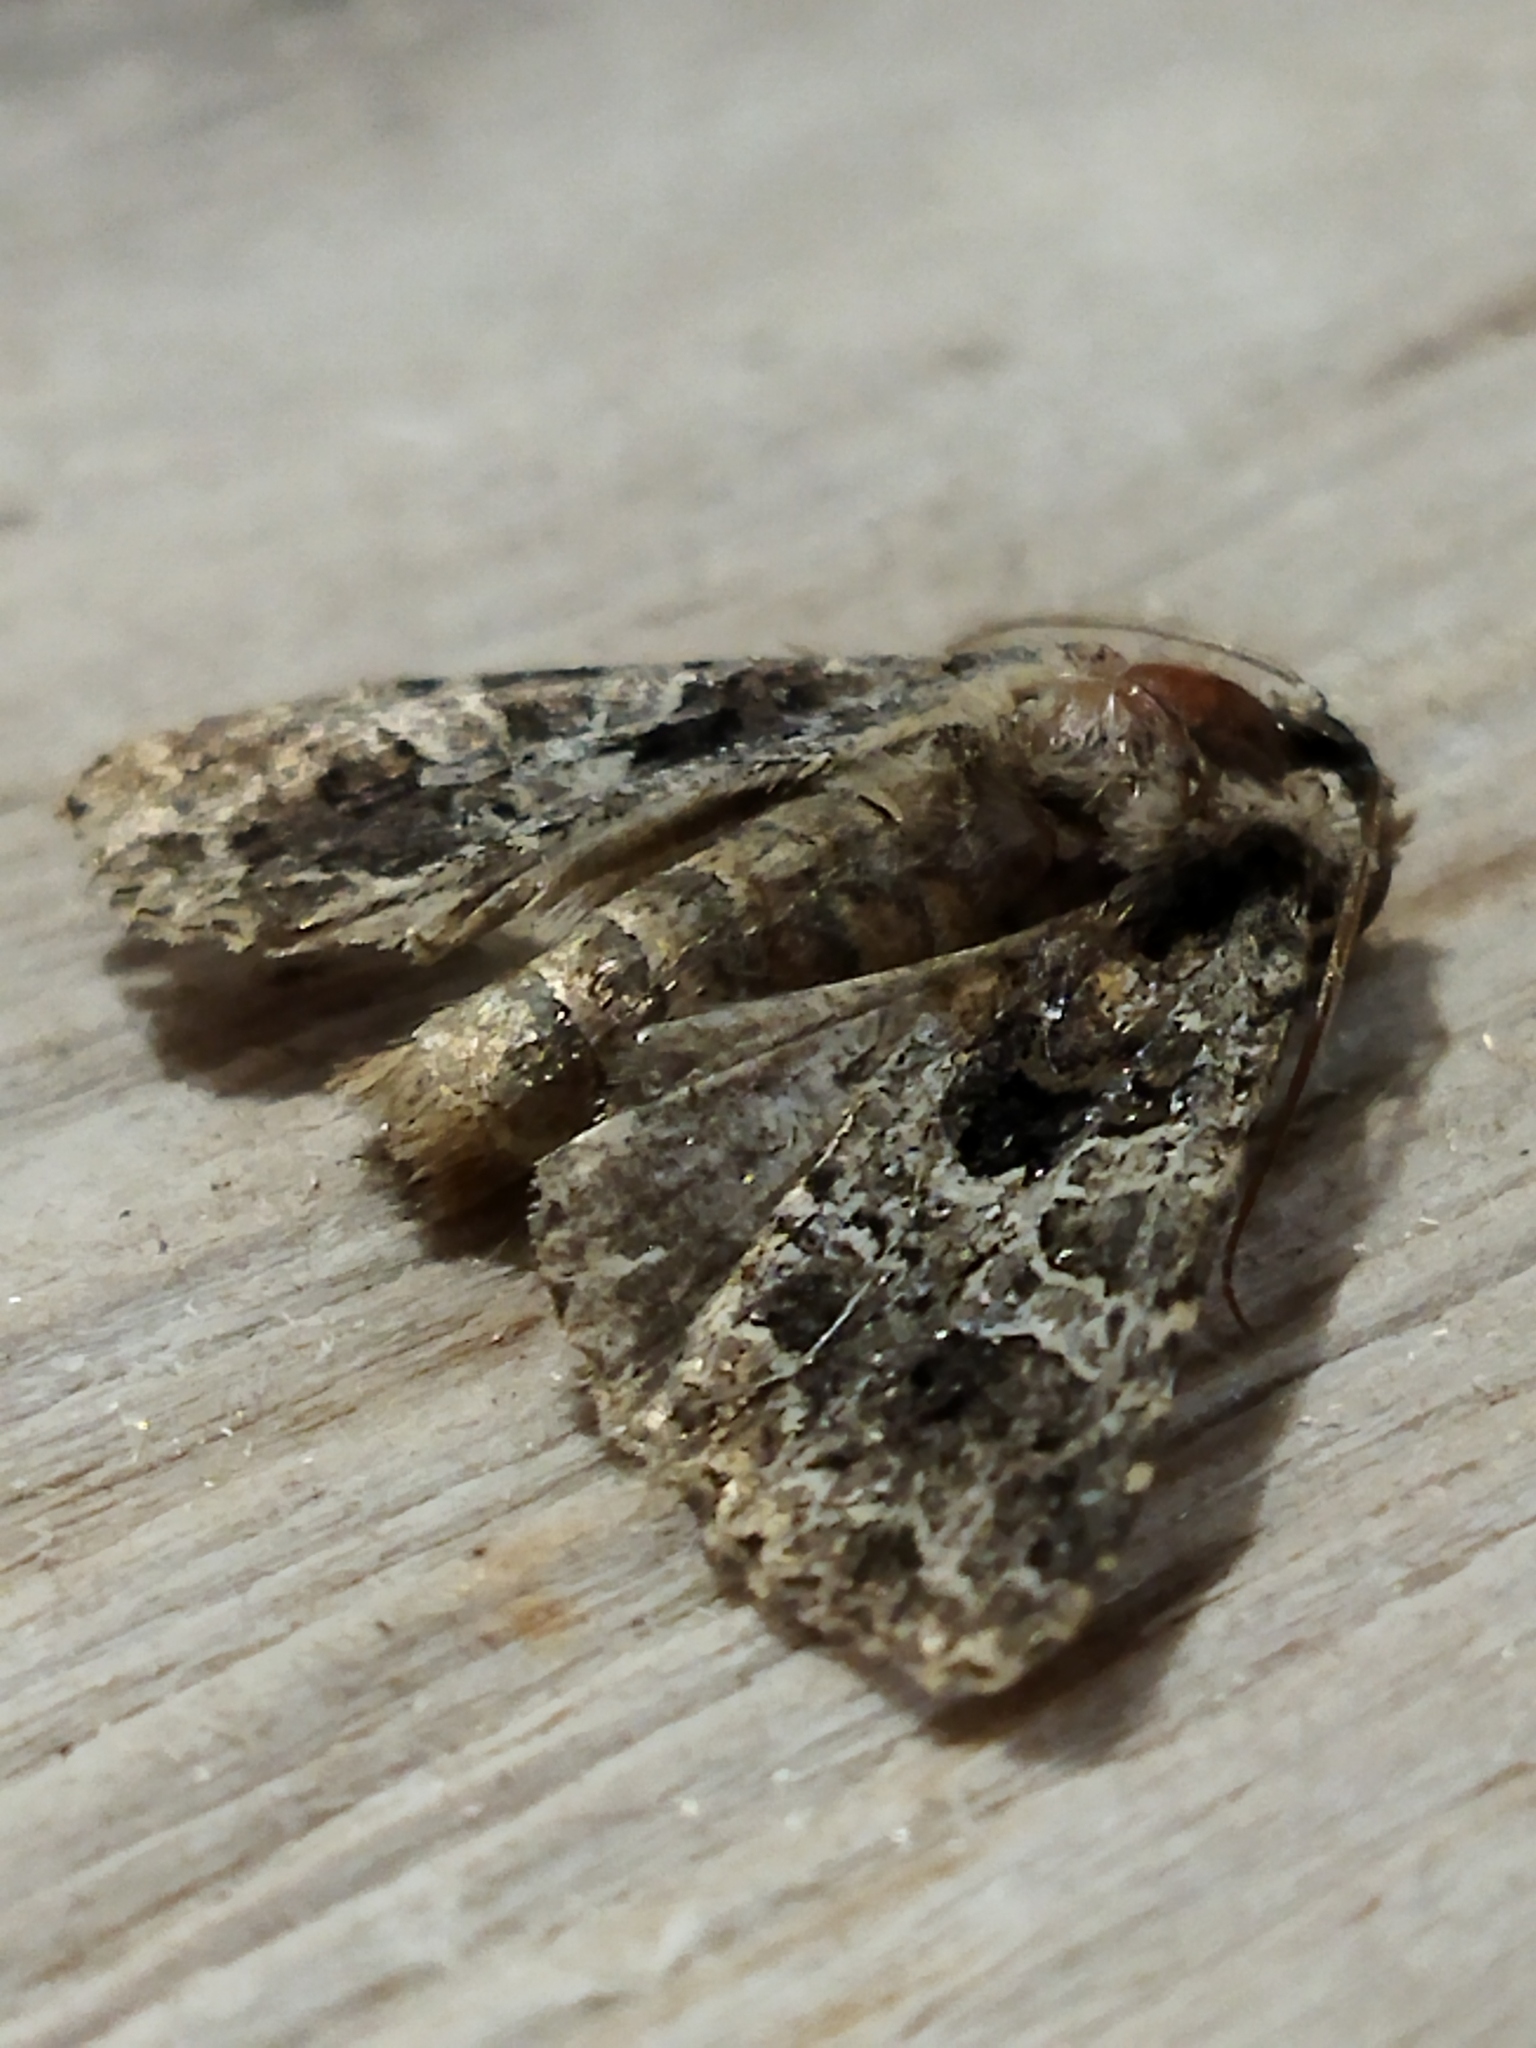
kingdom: Animalia
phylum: Arthropoda
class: Insecta
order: Lepidoptera
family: Noctuidae
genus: Hadena
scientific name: Hadena capsincola
